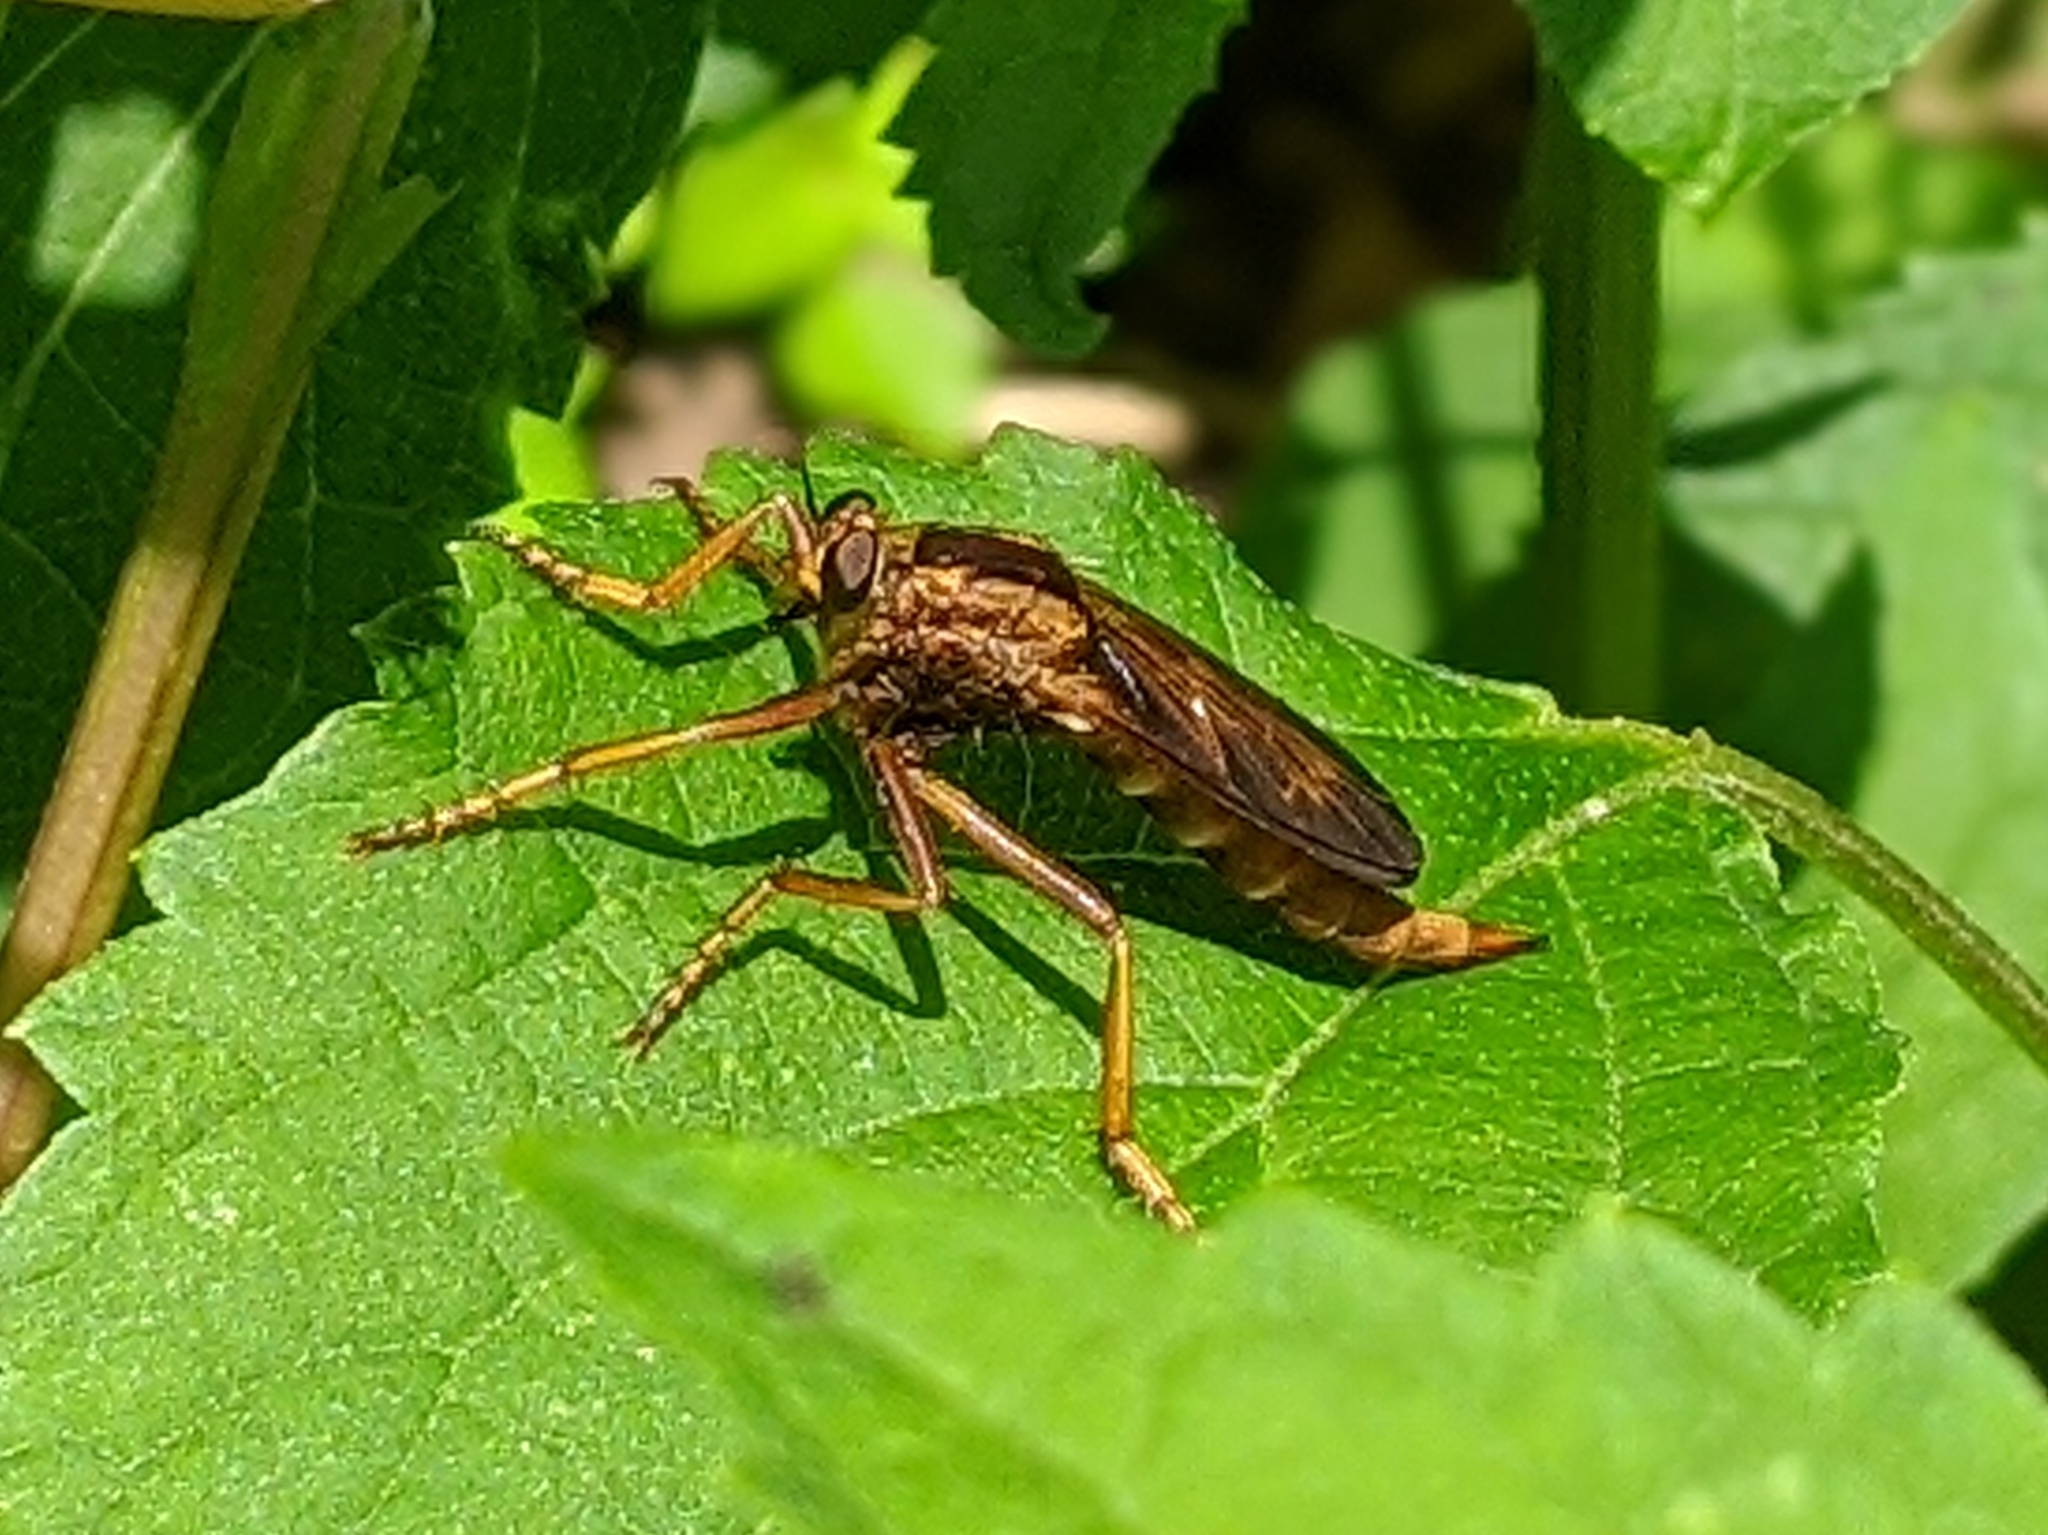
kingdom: Animalia
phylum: Arthropoda
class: Insecta
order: Diptera
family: Asilidae
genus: Asilus
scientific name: Asilus sericeus
